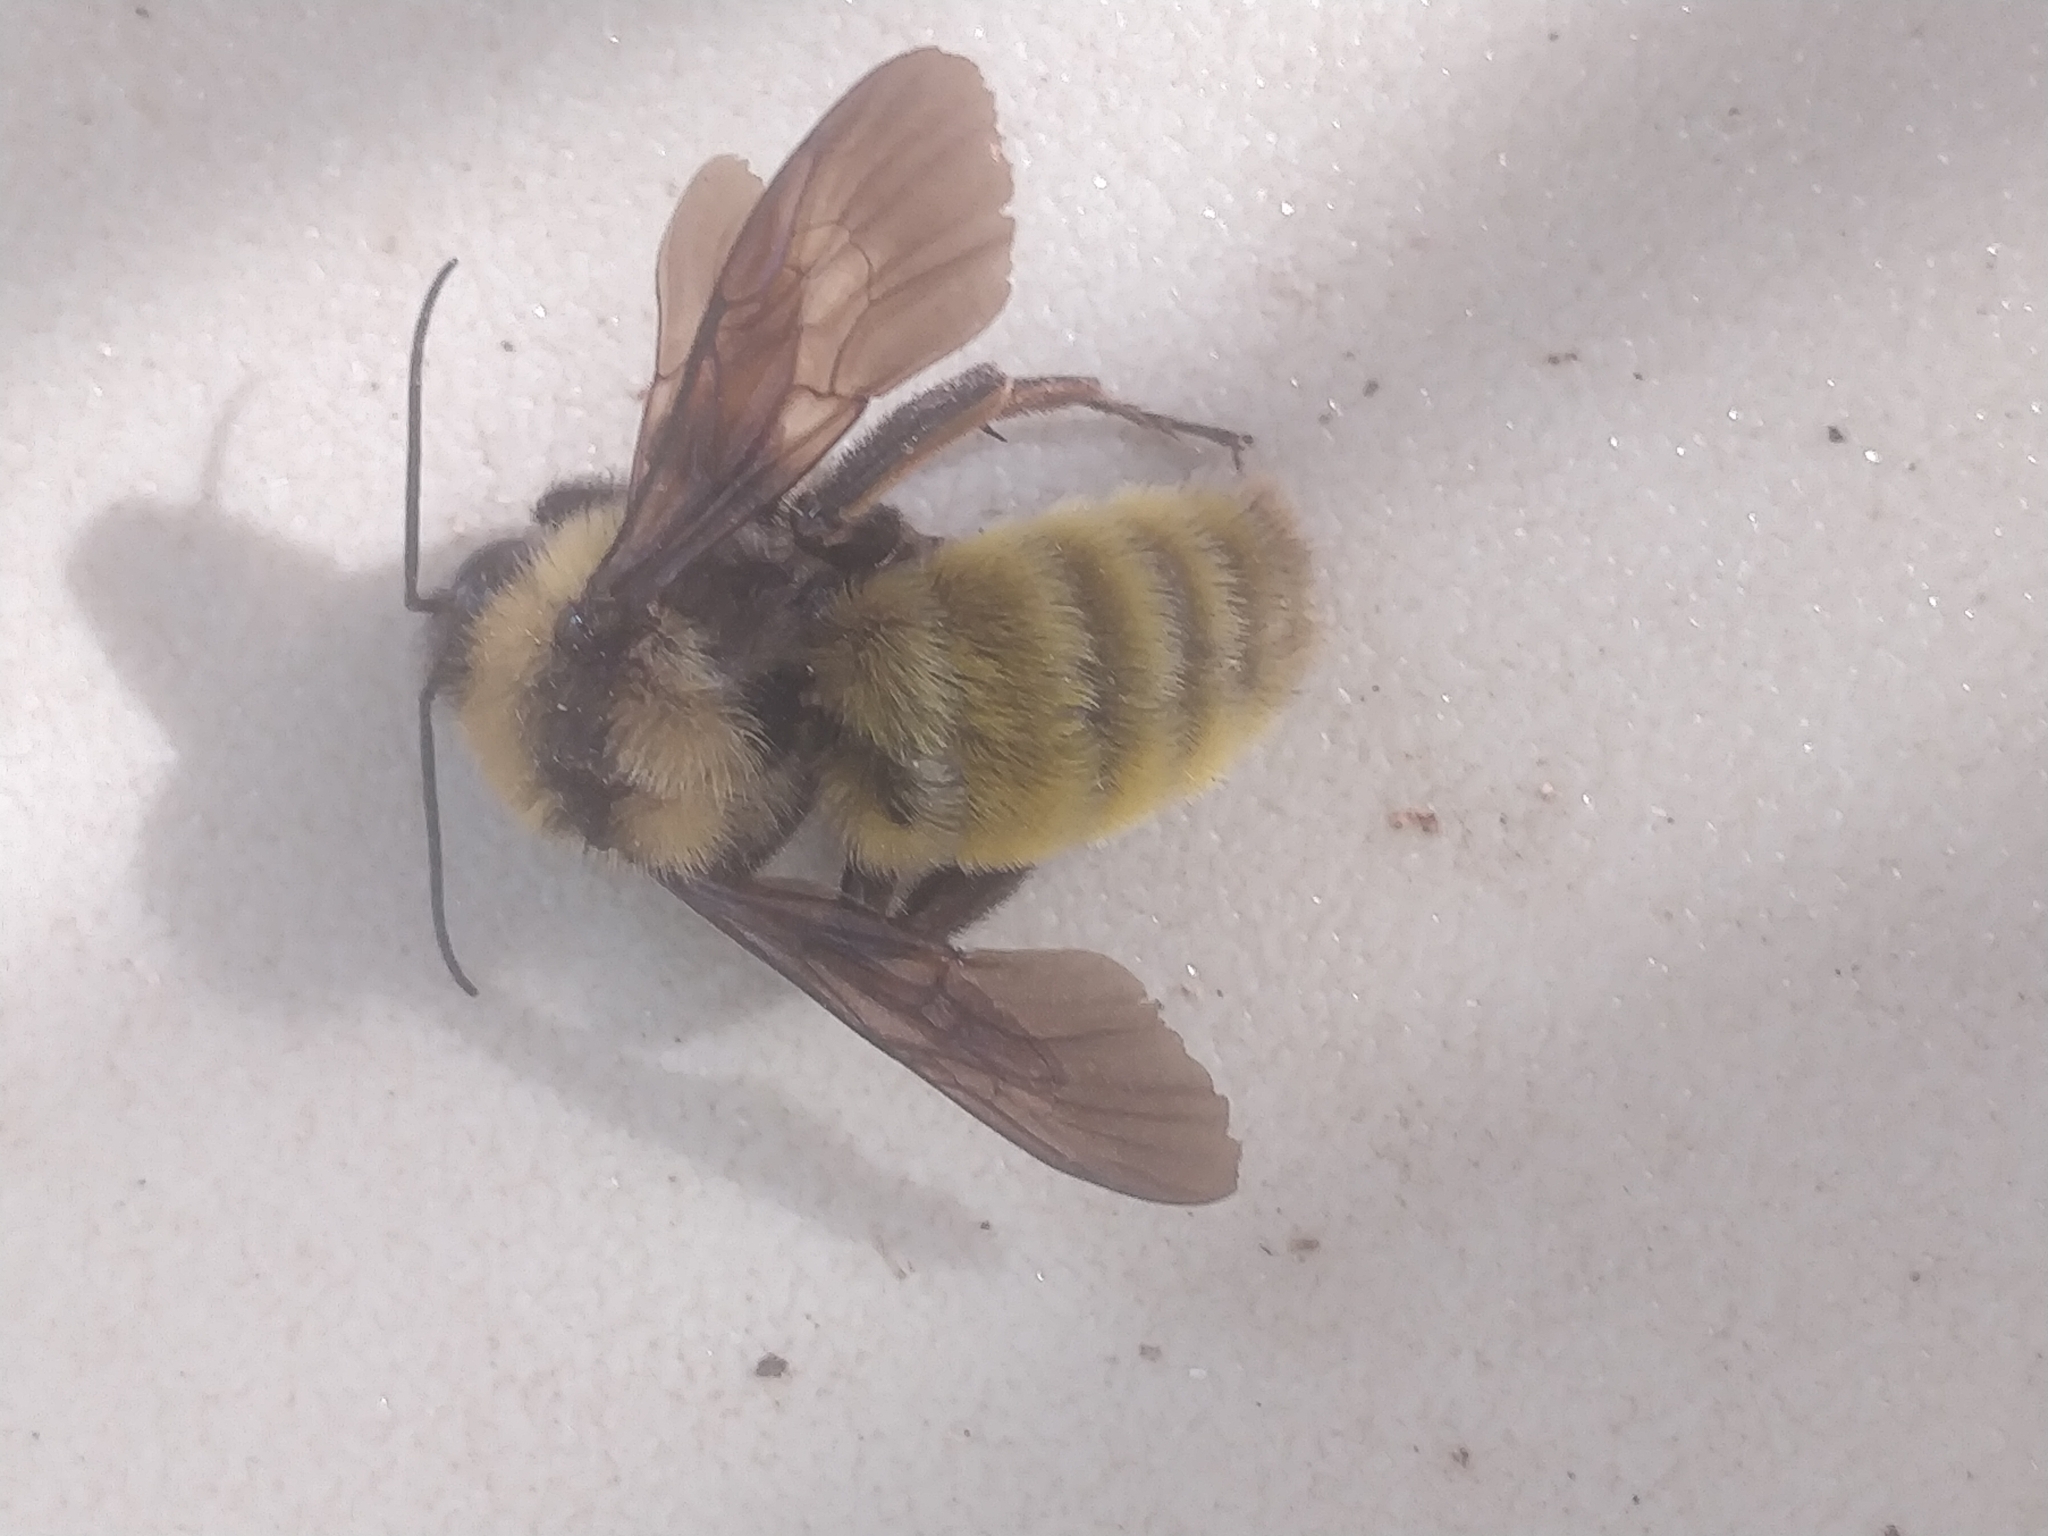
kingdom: Animalia
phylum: Arthropoda
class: Insecta
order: Hymenoptera
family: Apidae
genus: Bombus
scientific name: Bombus pensylvanicus
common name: Bumble bee
